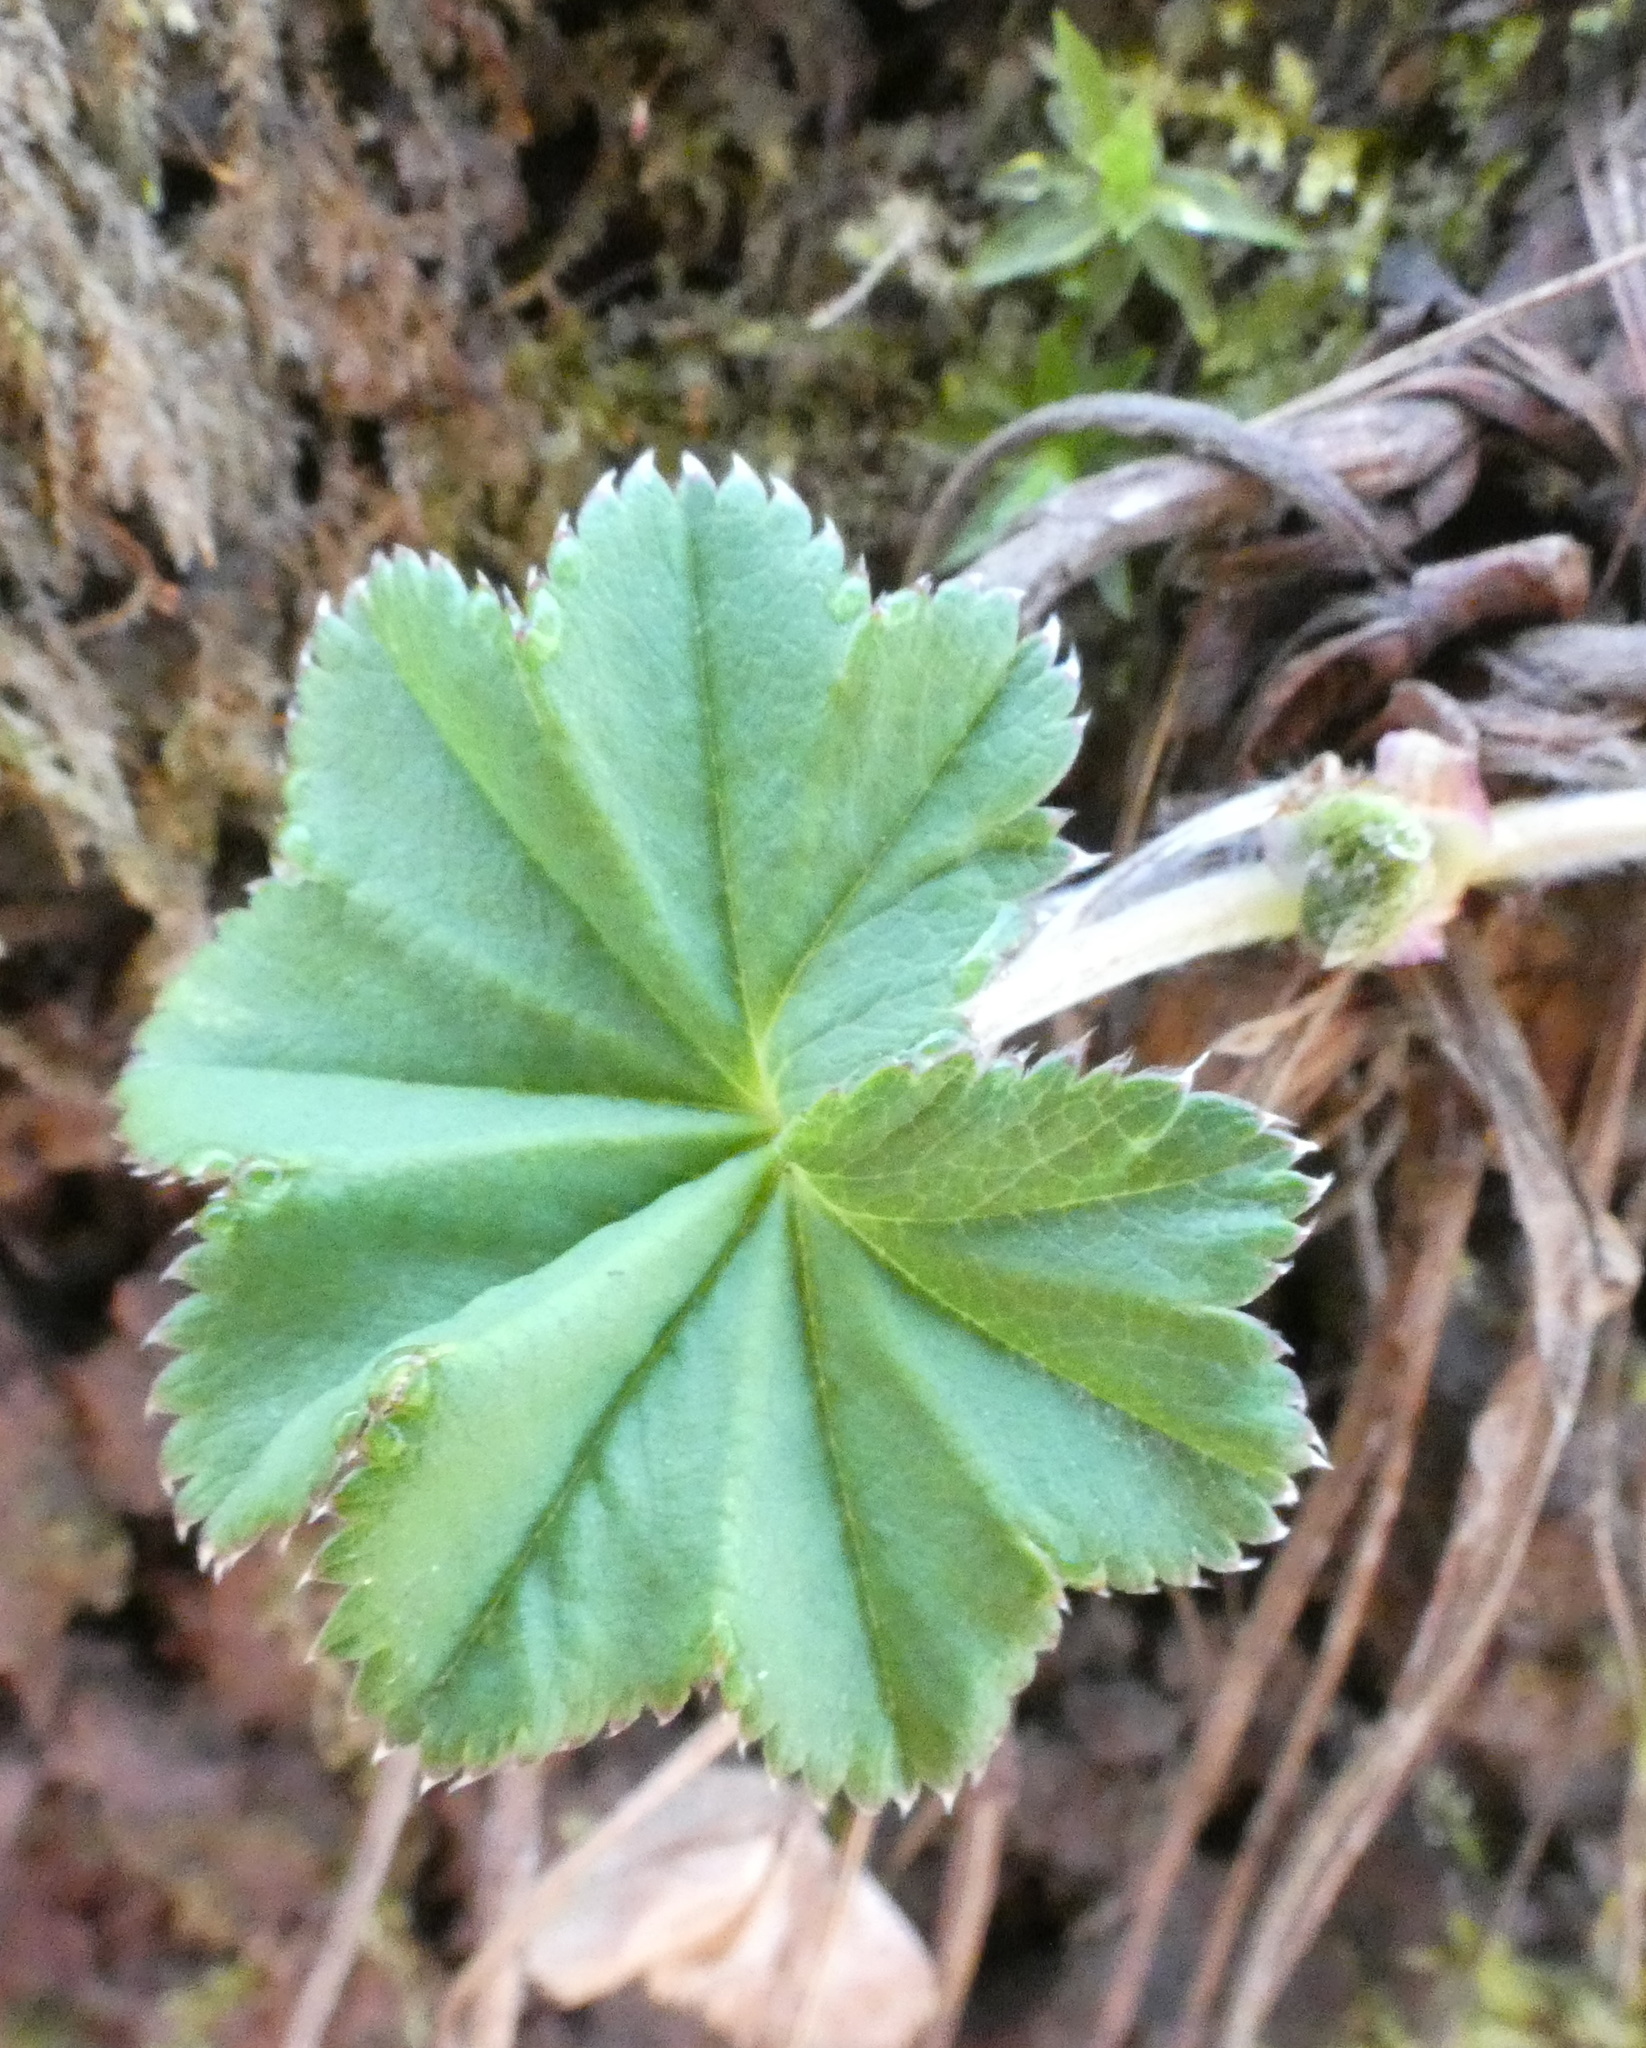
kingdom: Plantae
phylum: Tracheophyta
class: Magnoliopsida
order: Rosales
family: Rosaceae
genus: Alchemilla
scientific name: Alchemilla
